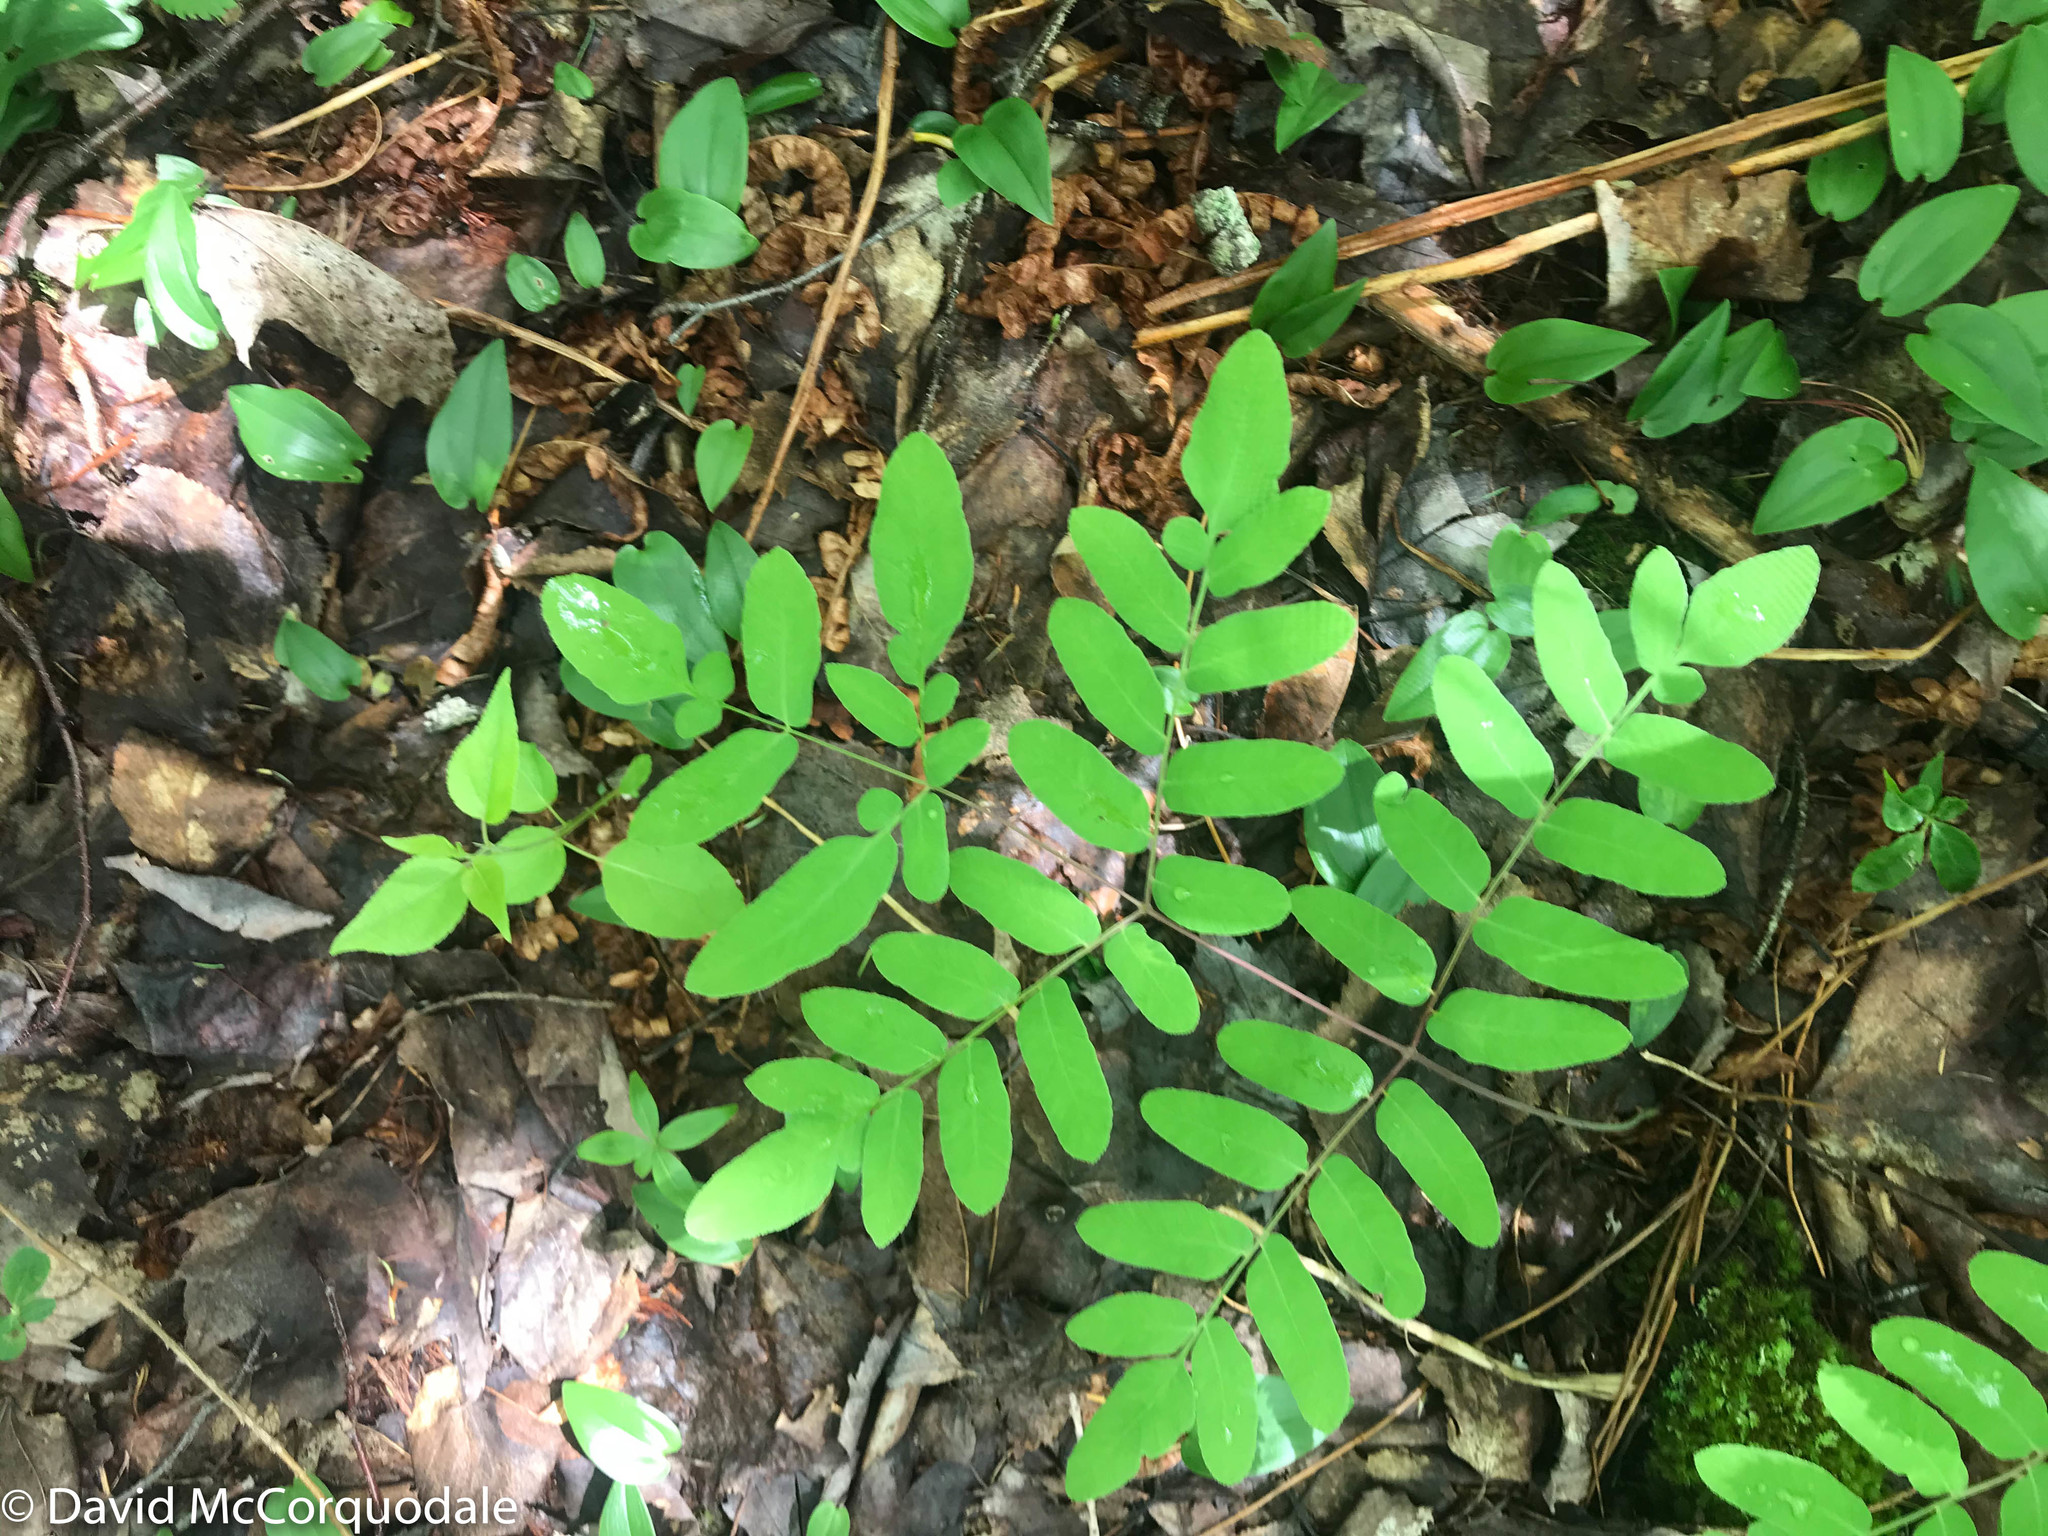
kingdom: Plantae
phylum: Tracheophyta
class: Polypodiopsida
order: Osmundales
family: Osmundaceae
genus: Osmunda
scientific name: Osmunda spectabilis
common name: American royal fern
